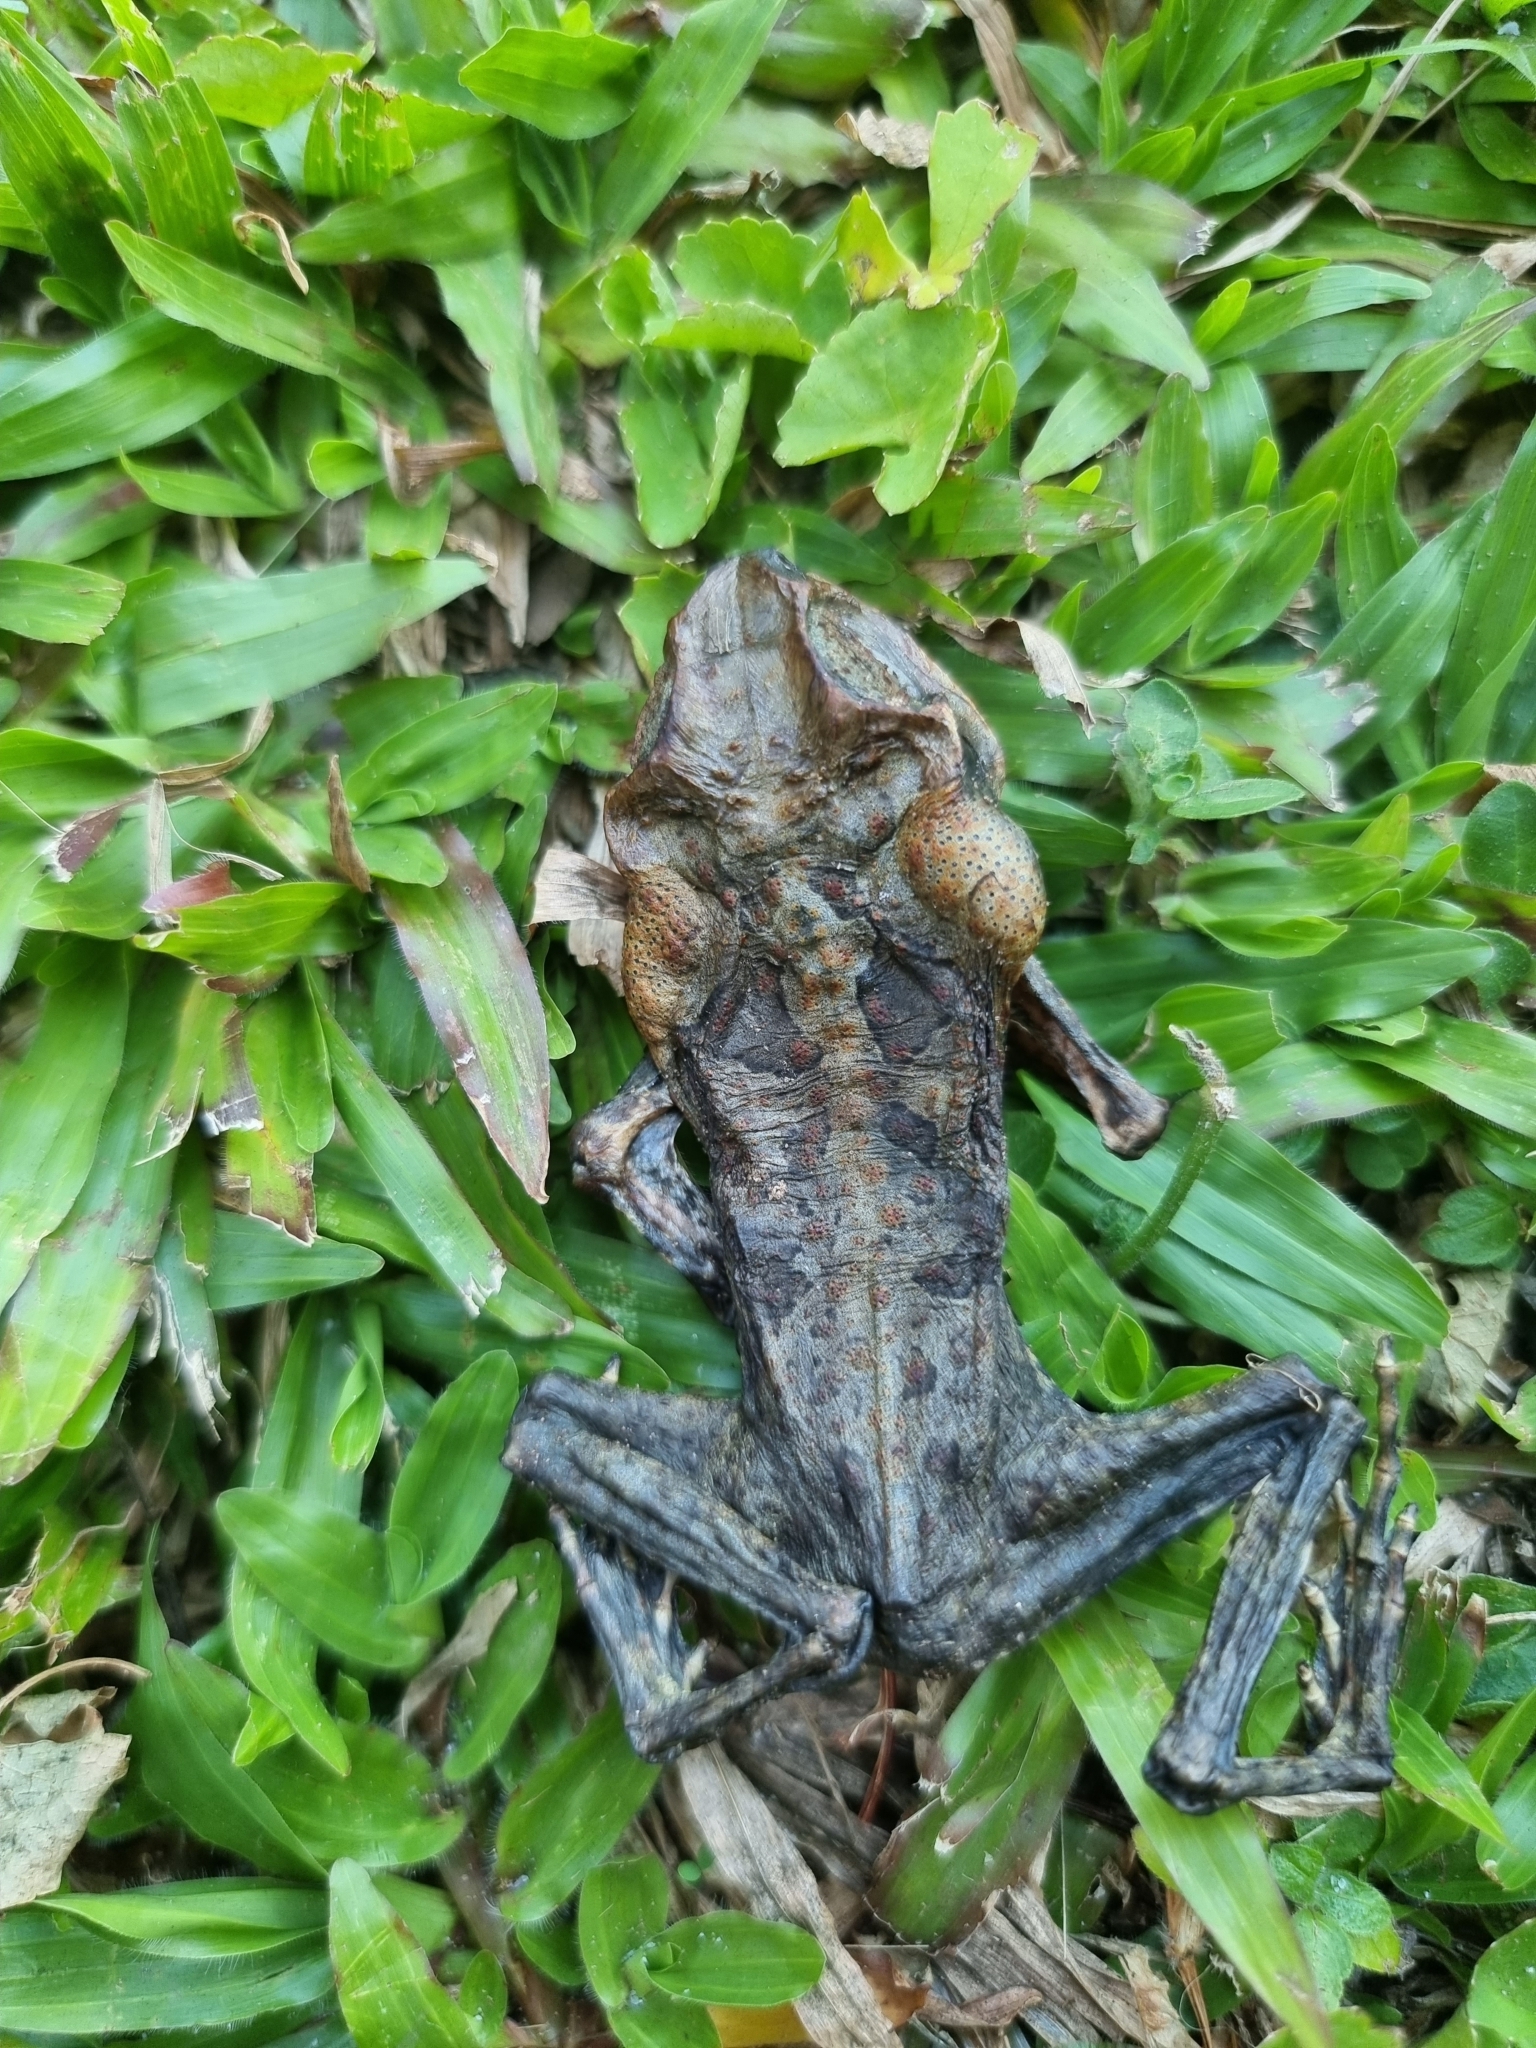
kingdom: Animalia
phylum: Chordata
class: Amphibia
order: Anura
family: Bufonidae
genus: Rhinella
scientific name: Rhinella marina
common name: Cane toad
